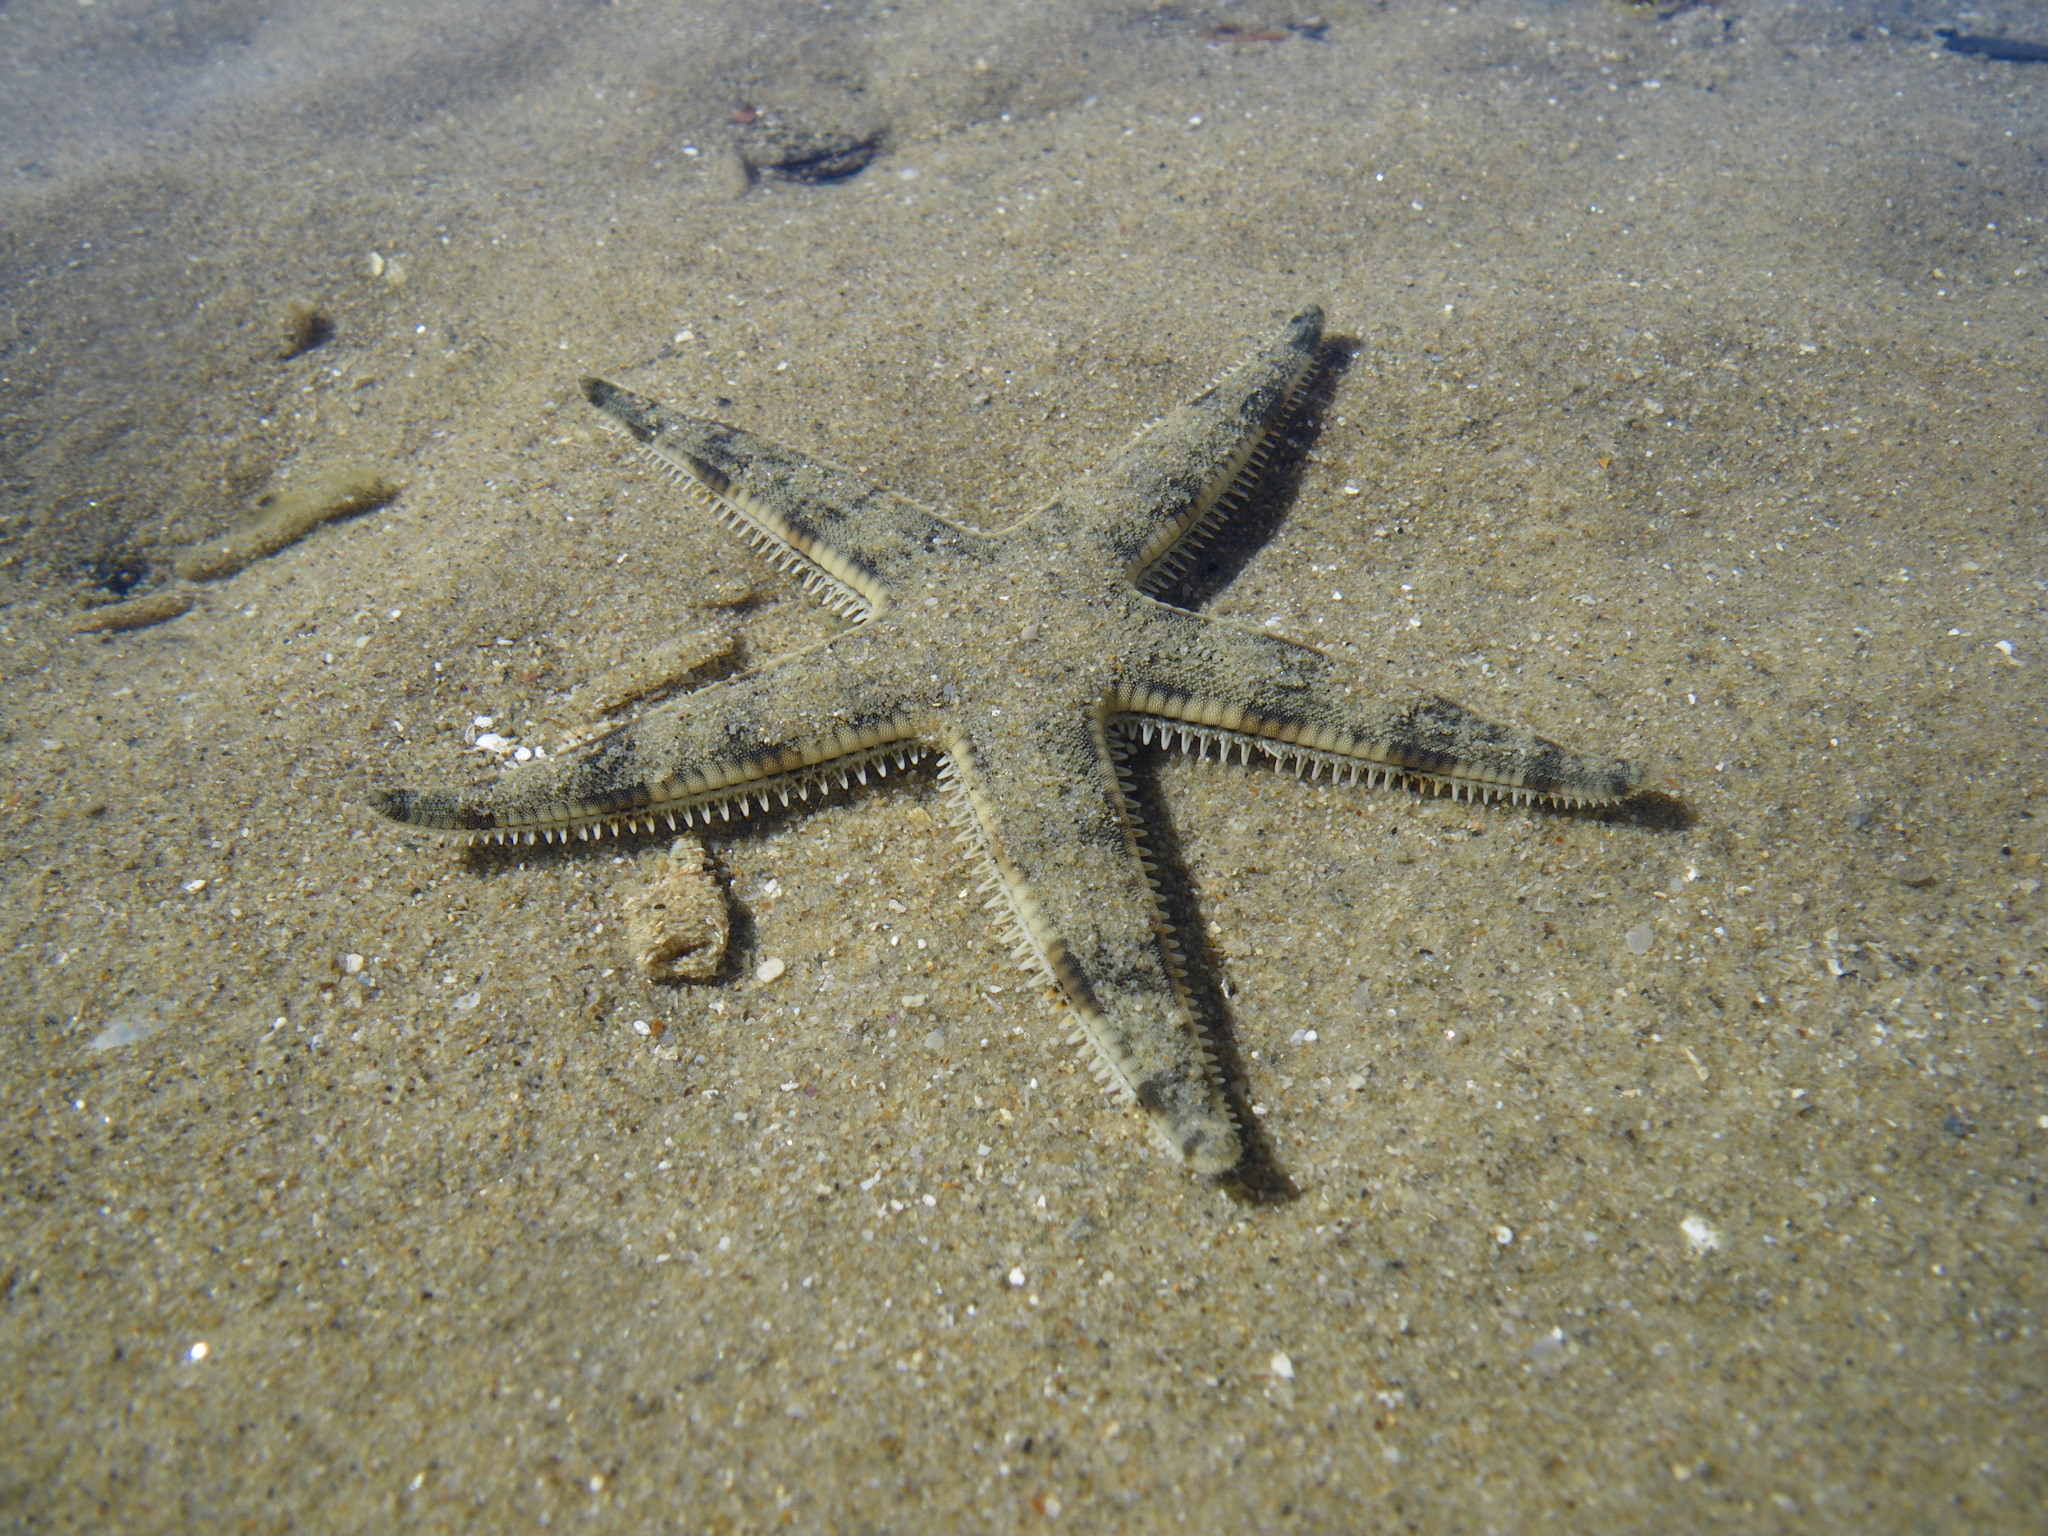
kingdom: Animalia
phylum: Echinodermata
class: Asteroidea
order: Valvatida
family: Archasteridae
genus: Archaster
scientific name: Archaster typicus
